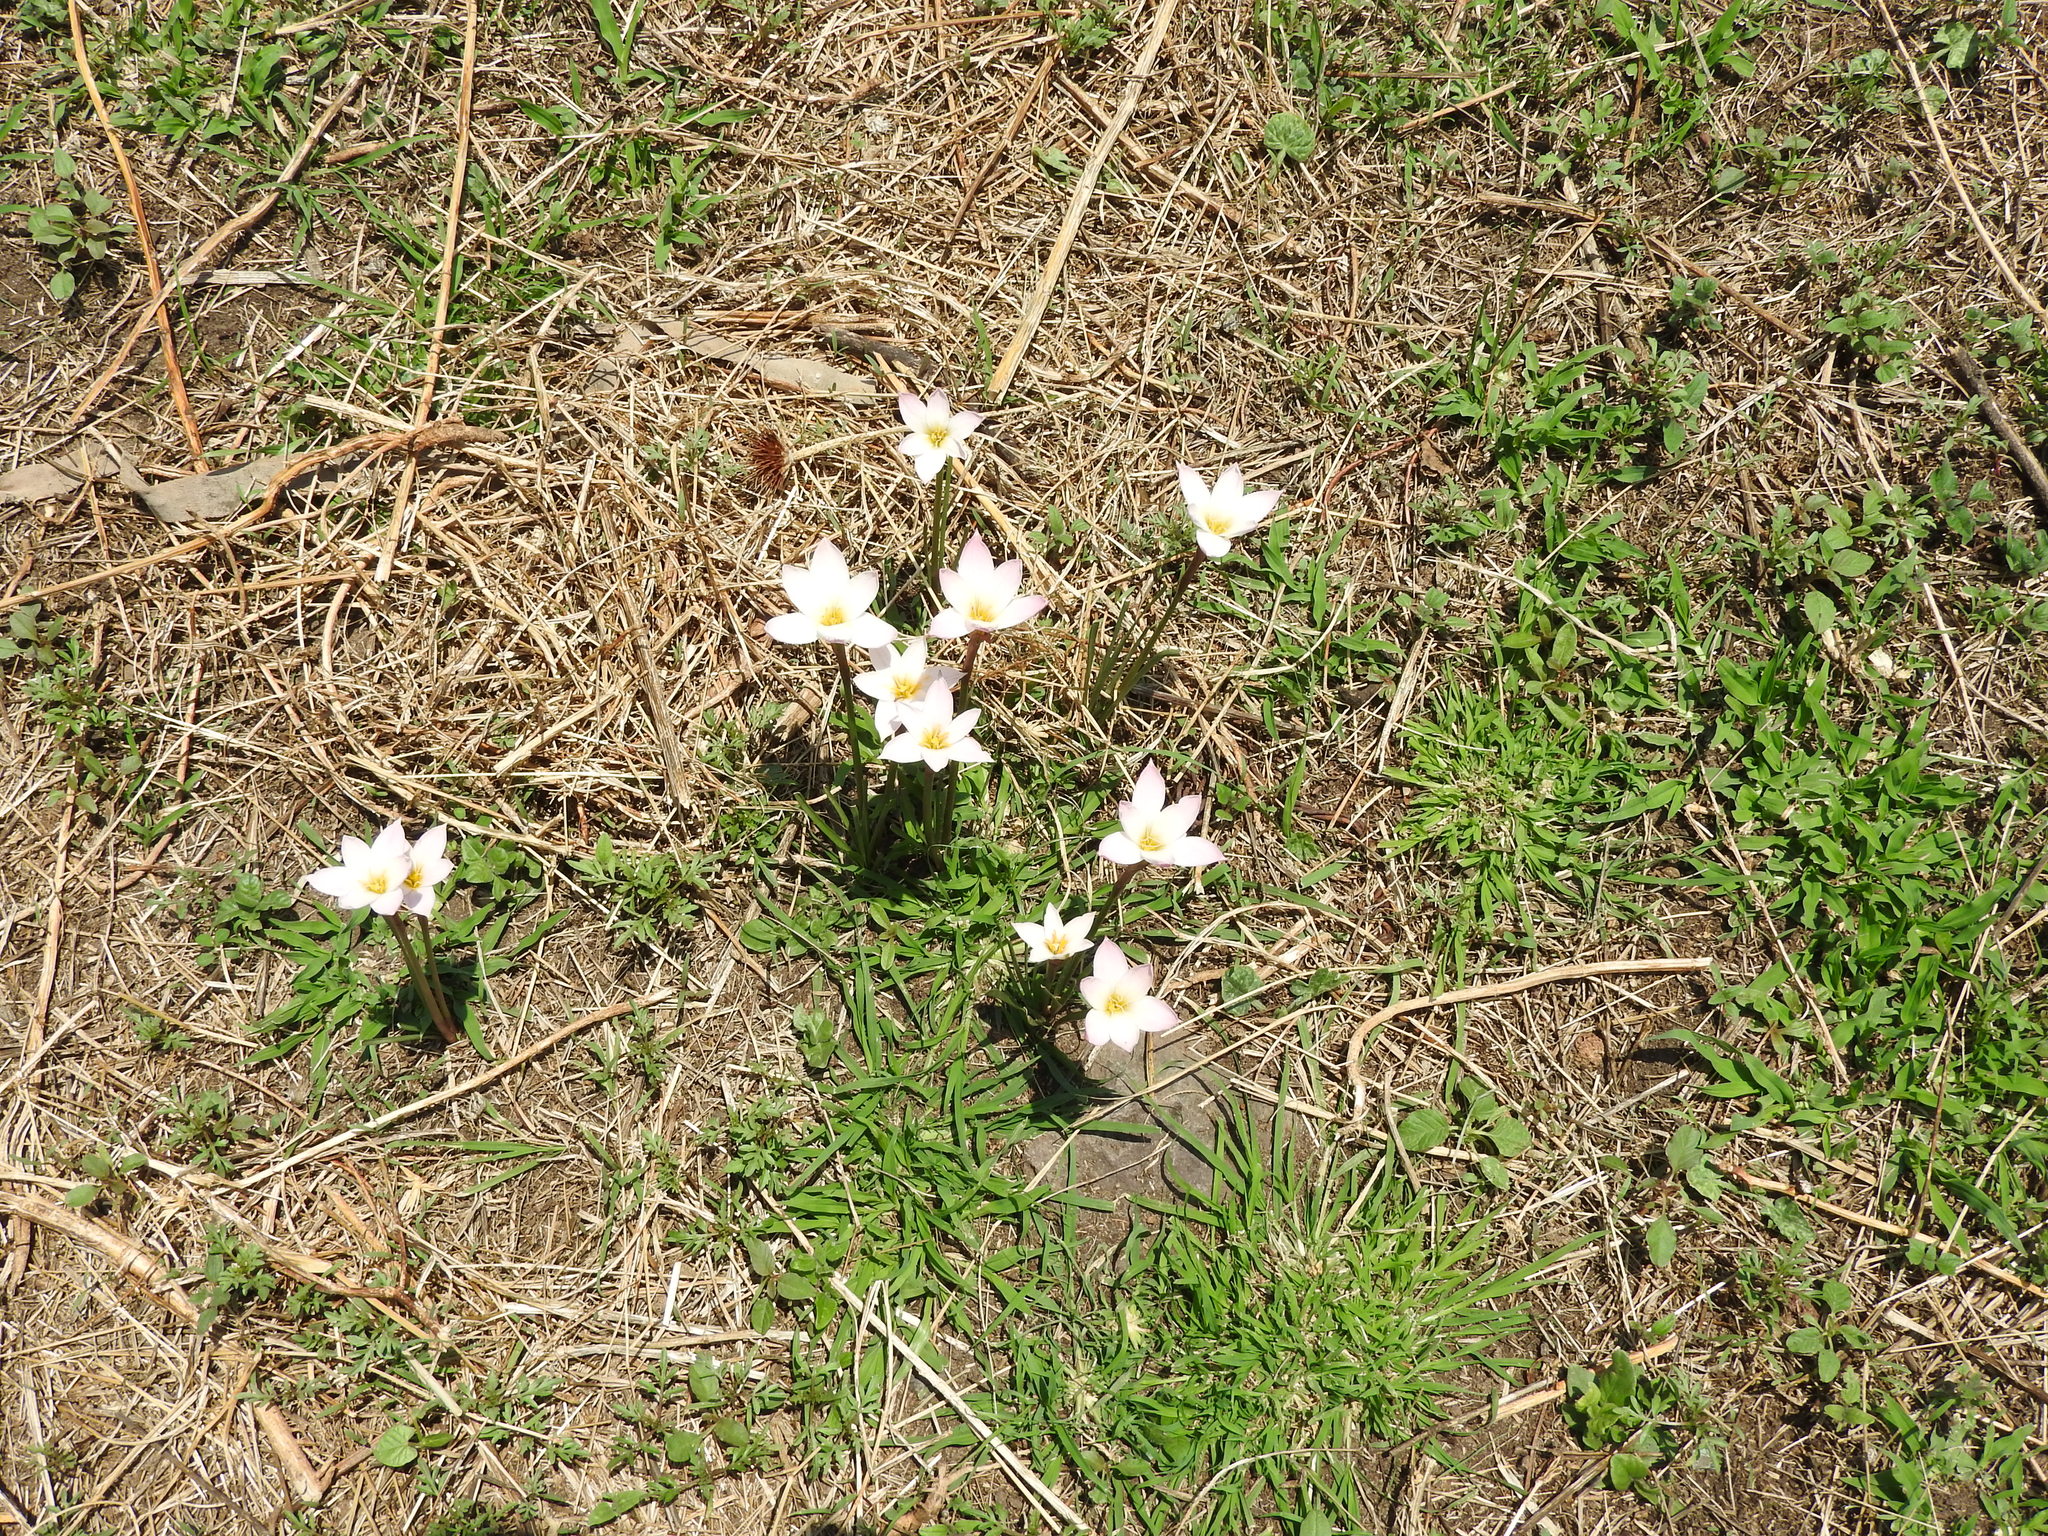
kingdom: Plantae
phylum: Tracheophyta
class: Liliopsida
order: Asparagales
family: Amaryllidaceae
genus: Zephyranthes
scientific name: Zephyranthes candida
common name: Autumn zephyrlily
